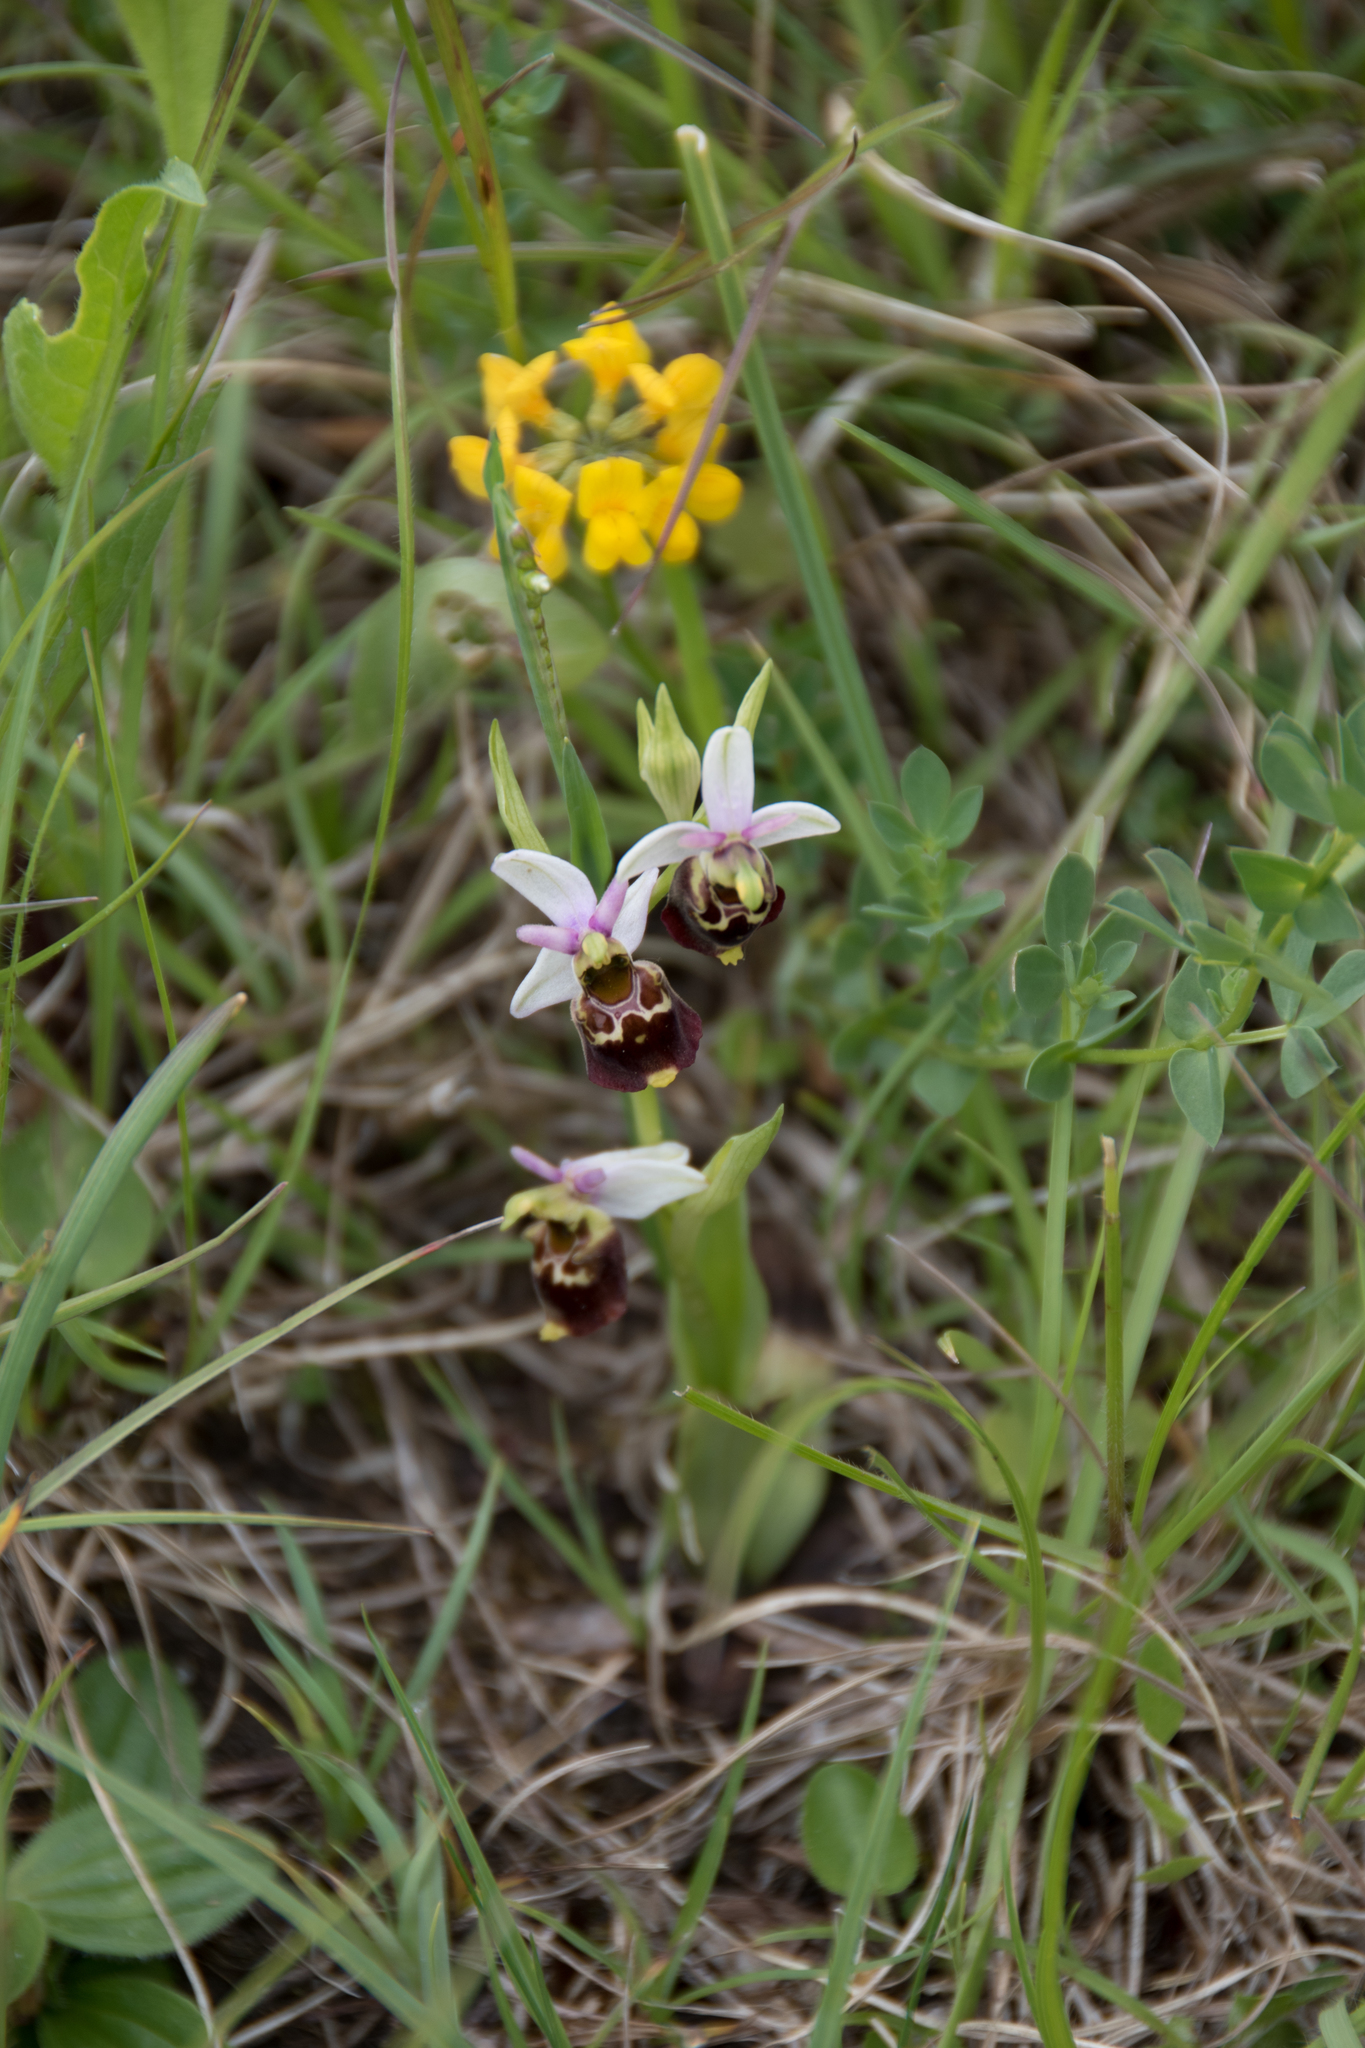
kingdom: Plantae
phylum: Tracheophyta
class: Liliopsida
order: Asparagales
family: Orchidaceae
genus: Ophrys
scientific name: Ophrys holosericea
